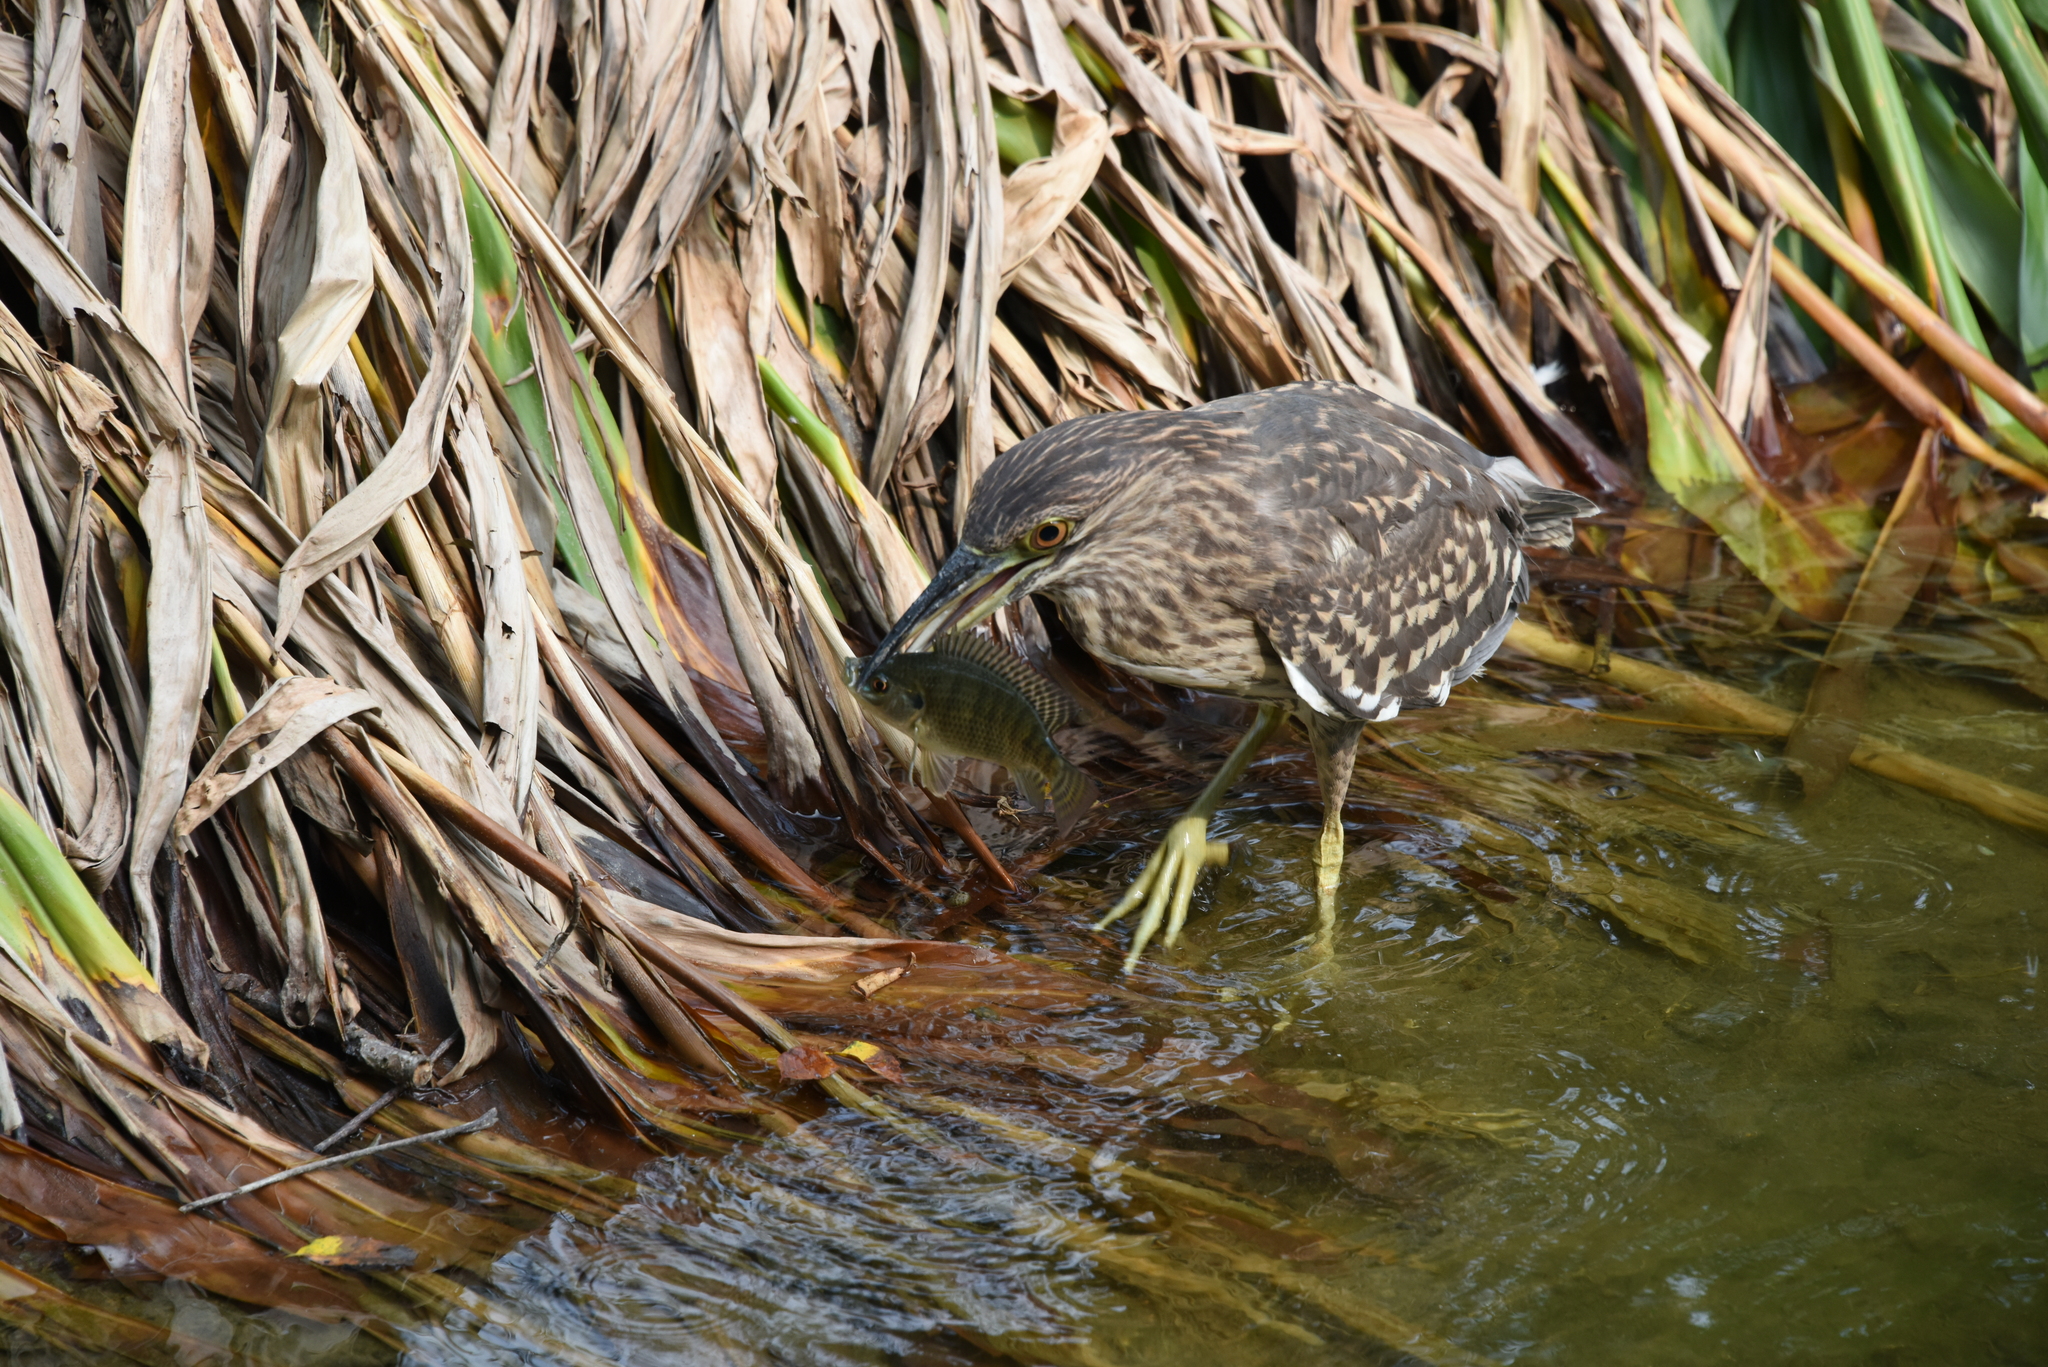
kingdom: Animalia
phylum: Chordata
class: Aves
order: Pelecaniformes
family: Ardeidae
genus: Nycticorax
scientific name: Nycticorax nycticorax
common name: Black-crowned night heron
